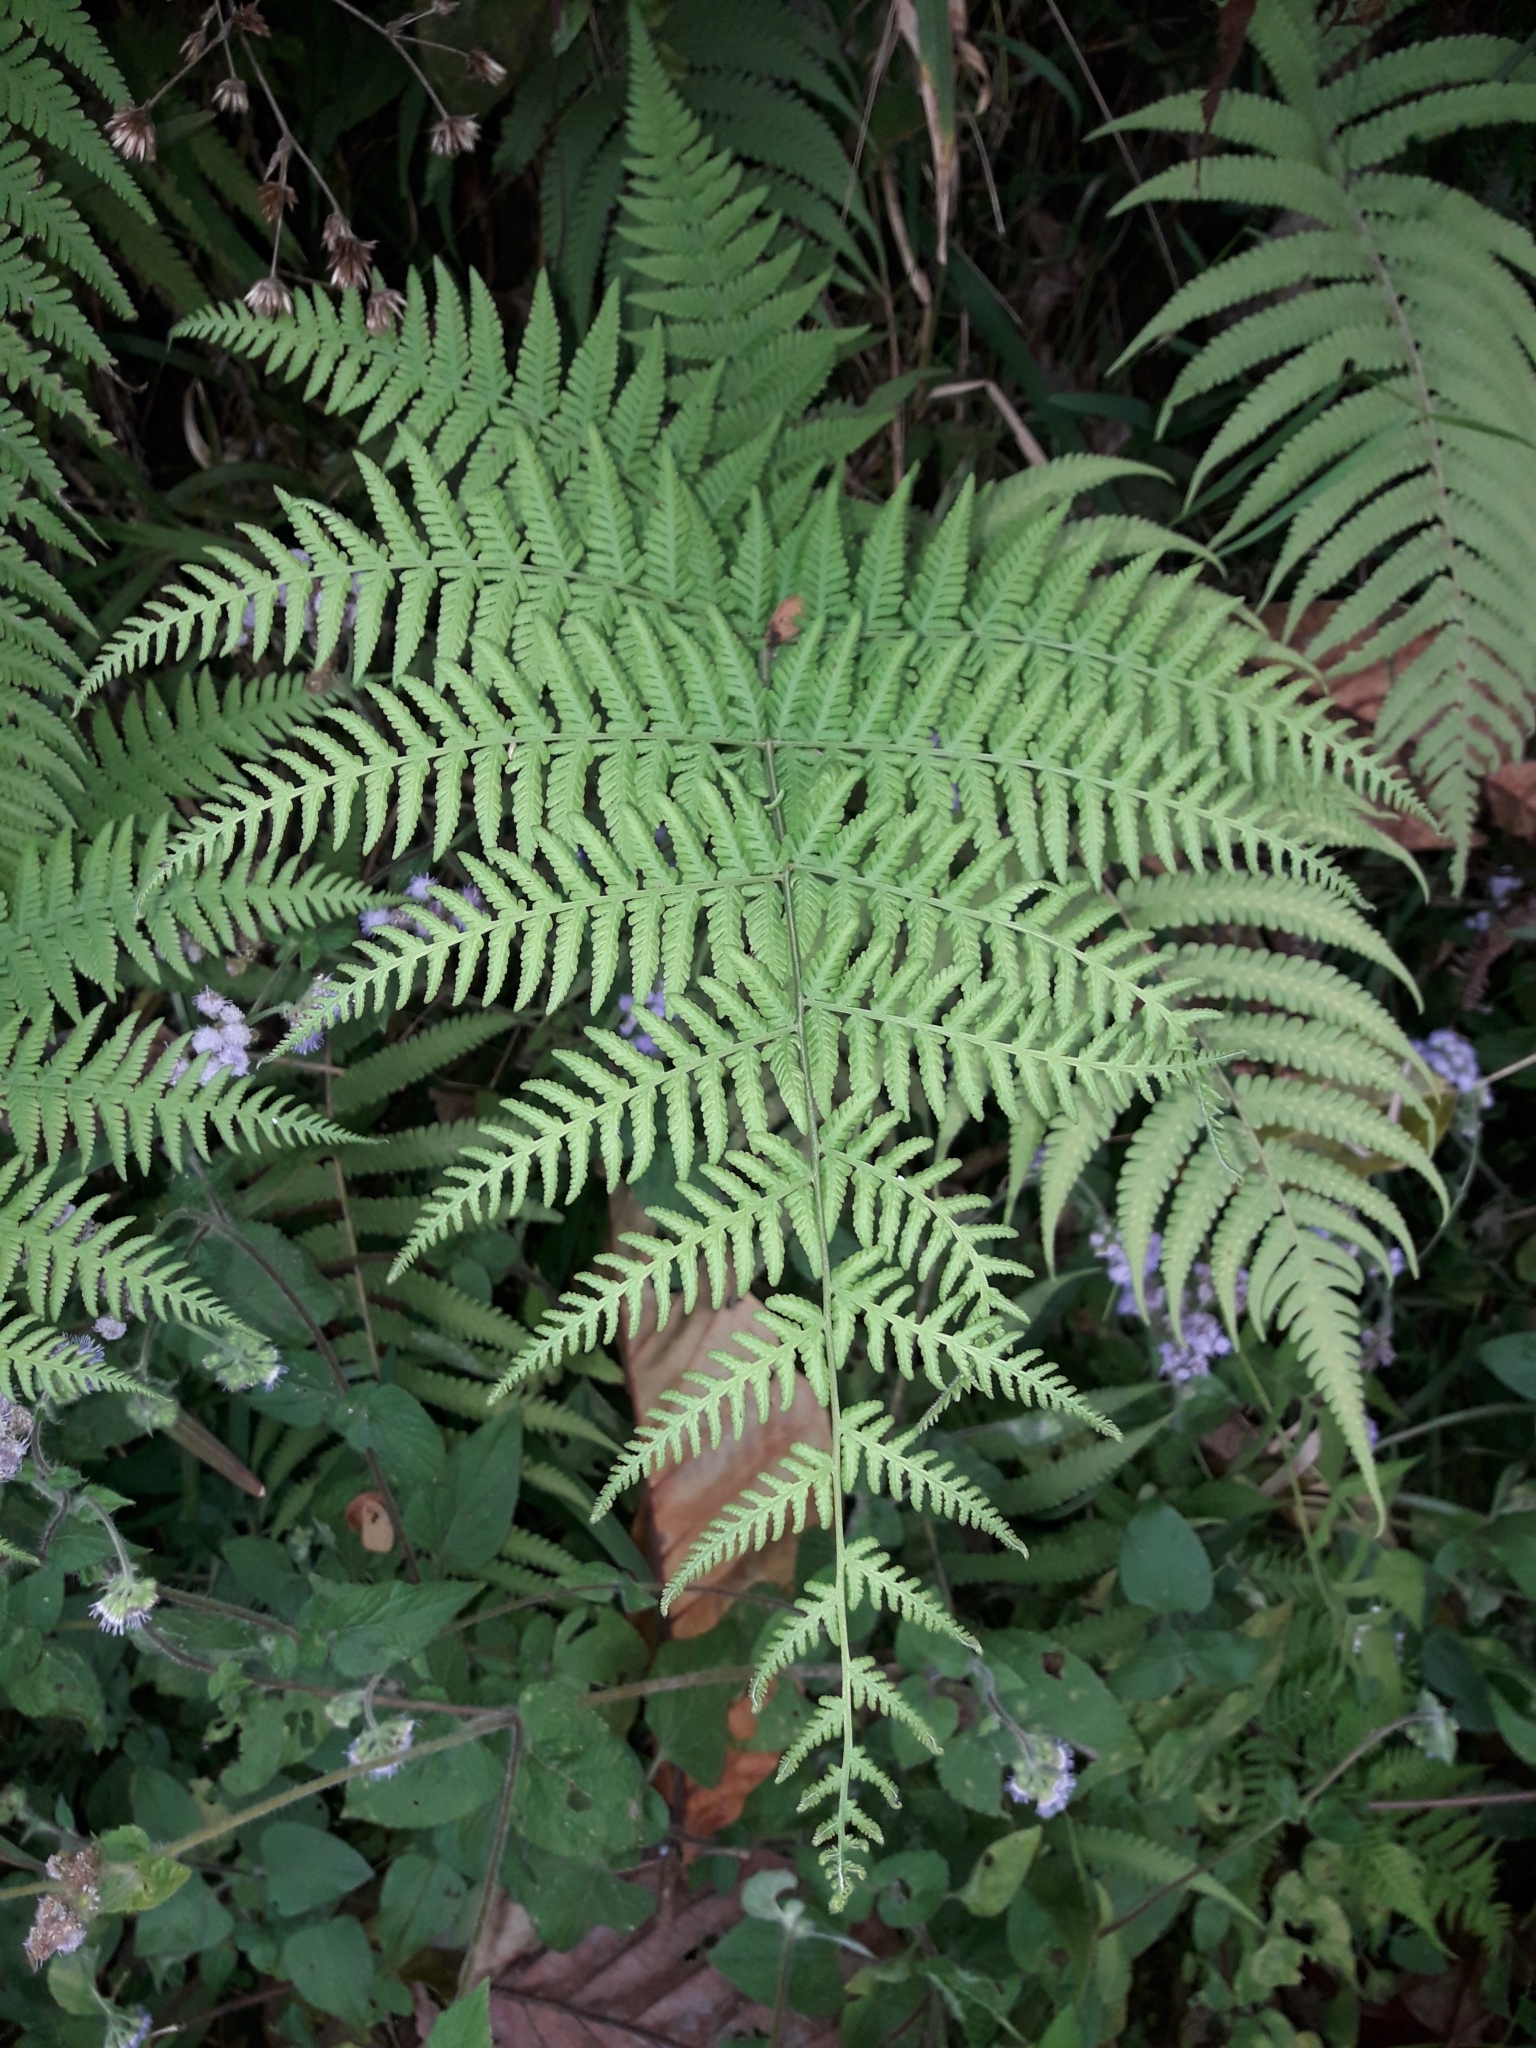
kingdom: Plantae
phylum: Tracheophyta
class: Polypodiopsida
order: Polypodiales
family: Thelypteridaceae
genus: Macrothelypteris
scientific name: Macrothelypteris torresiana
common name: Swordfern
